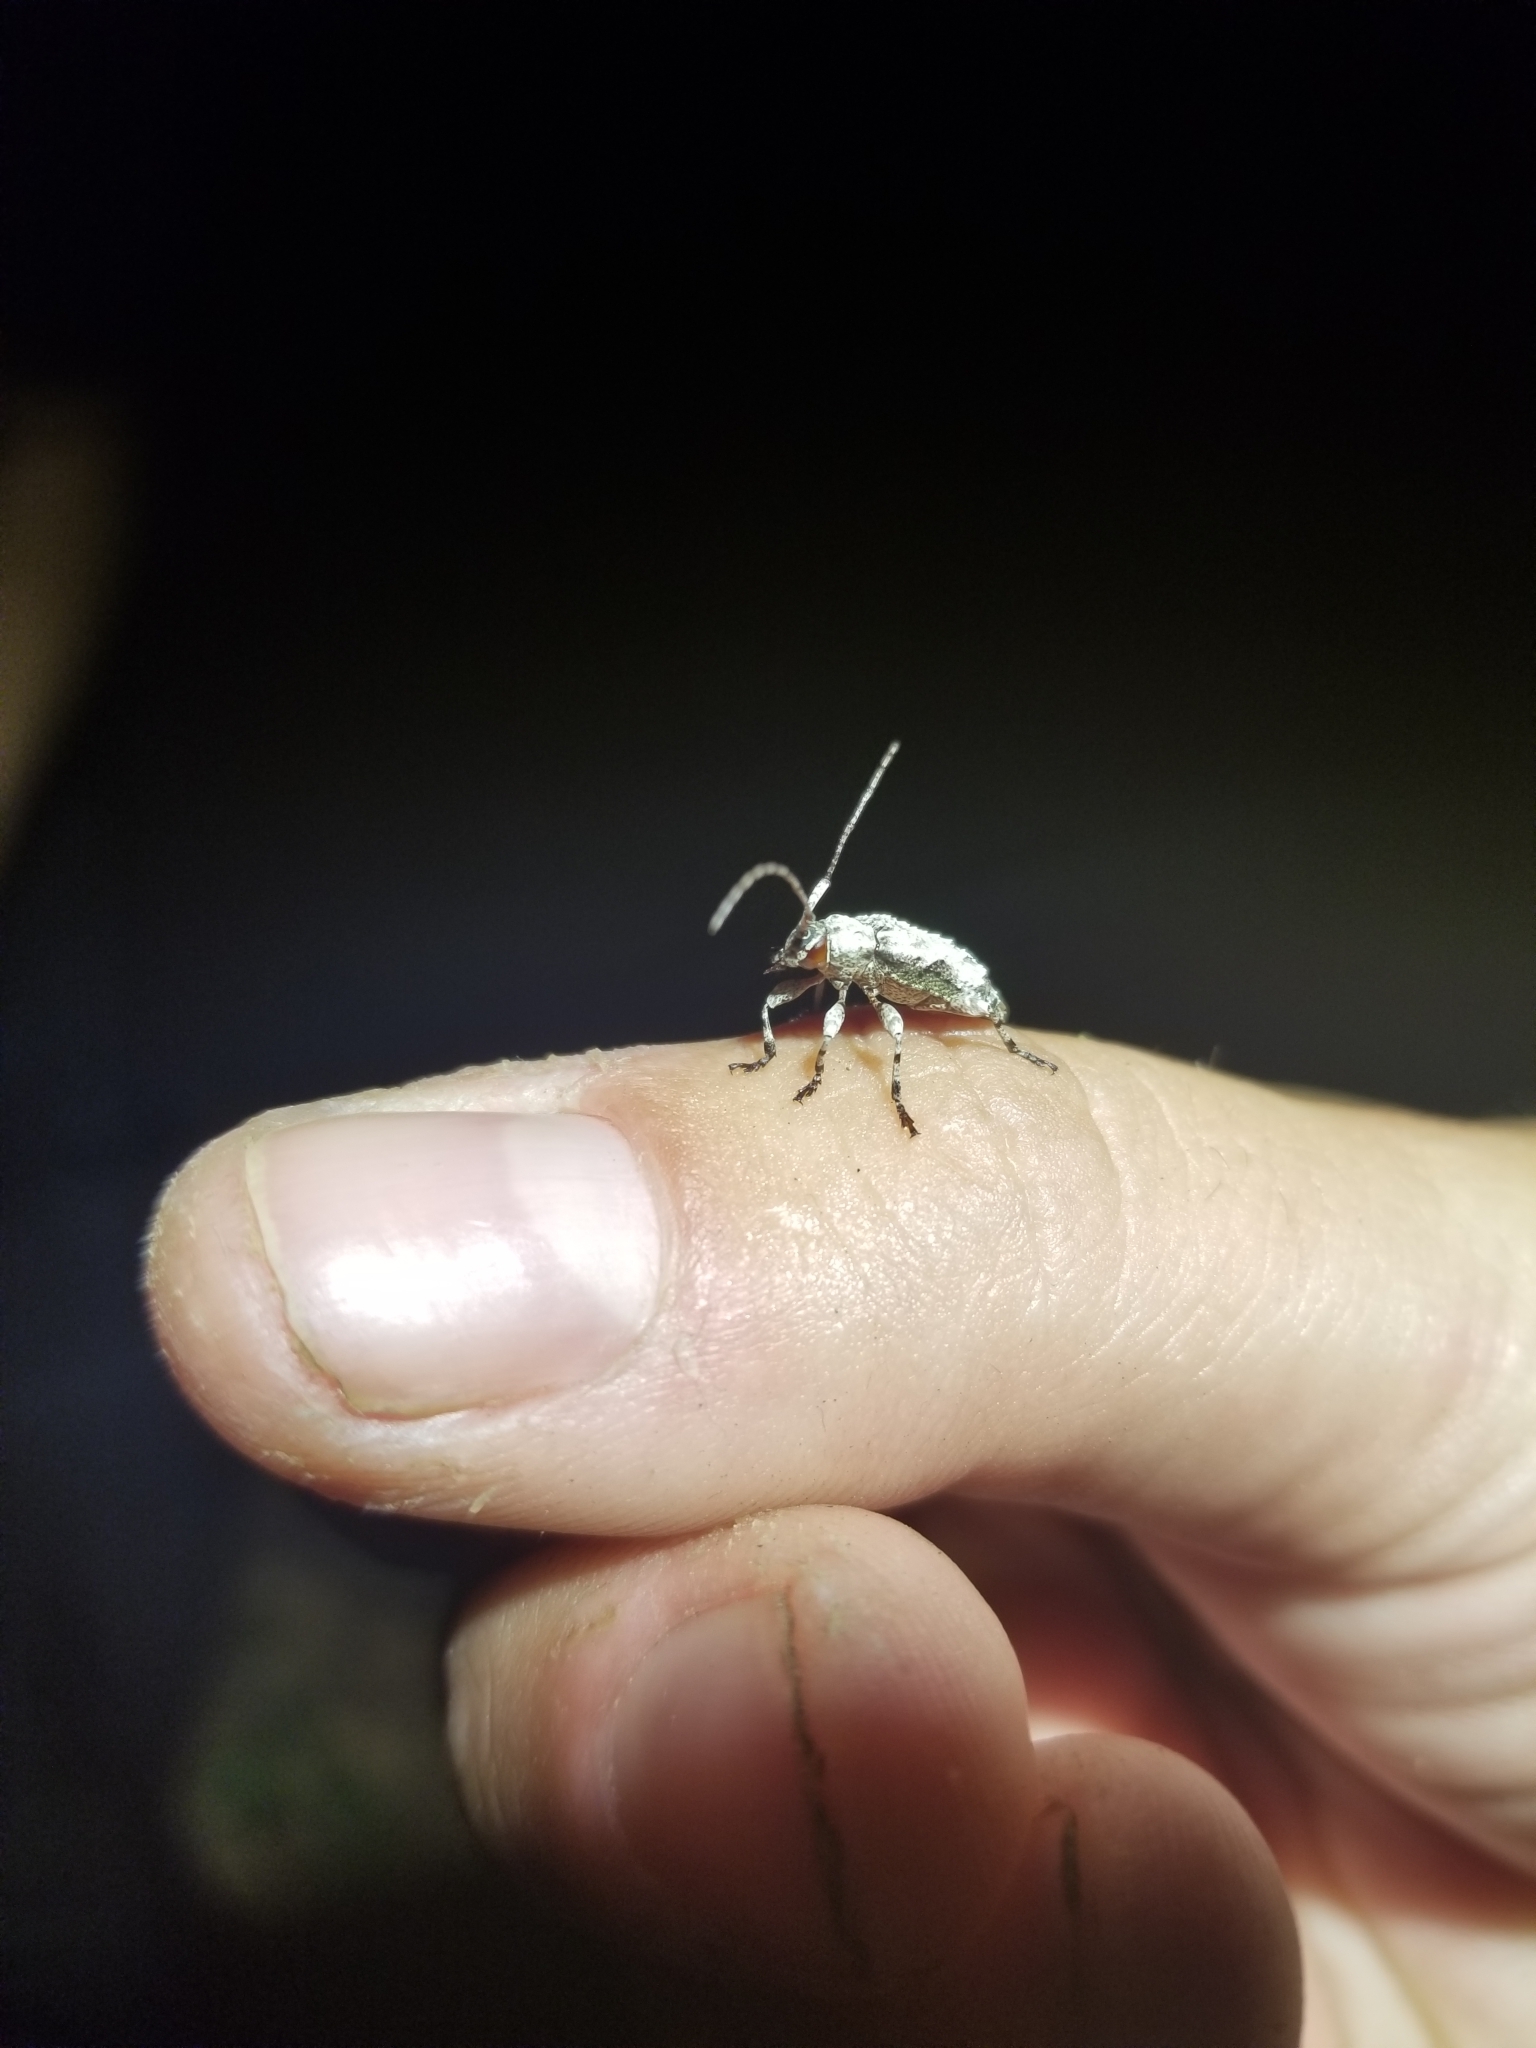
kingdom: Animalia
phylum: Arthropoda
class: Insecta
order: Coleoptera
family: Cerambycidae
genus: Leptostylus
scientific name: Leptostylus asperatus
